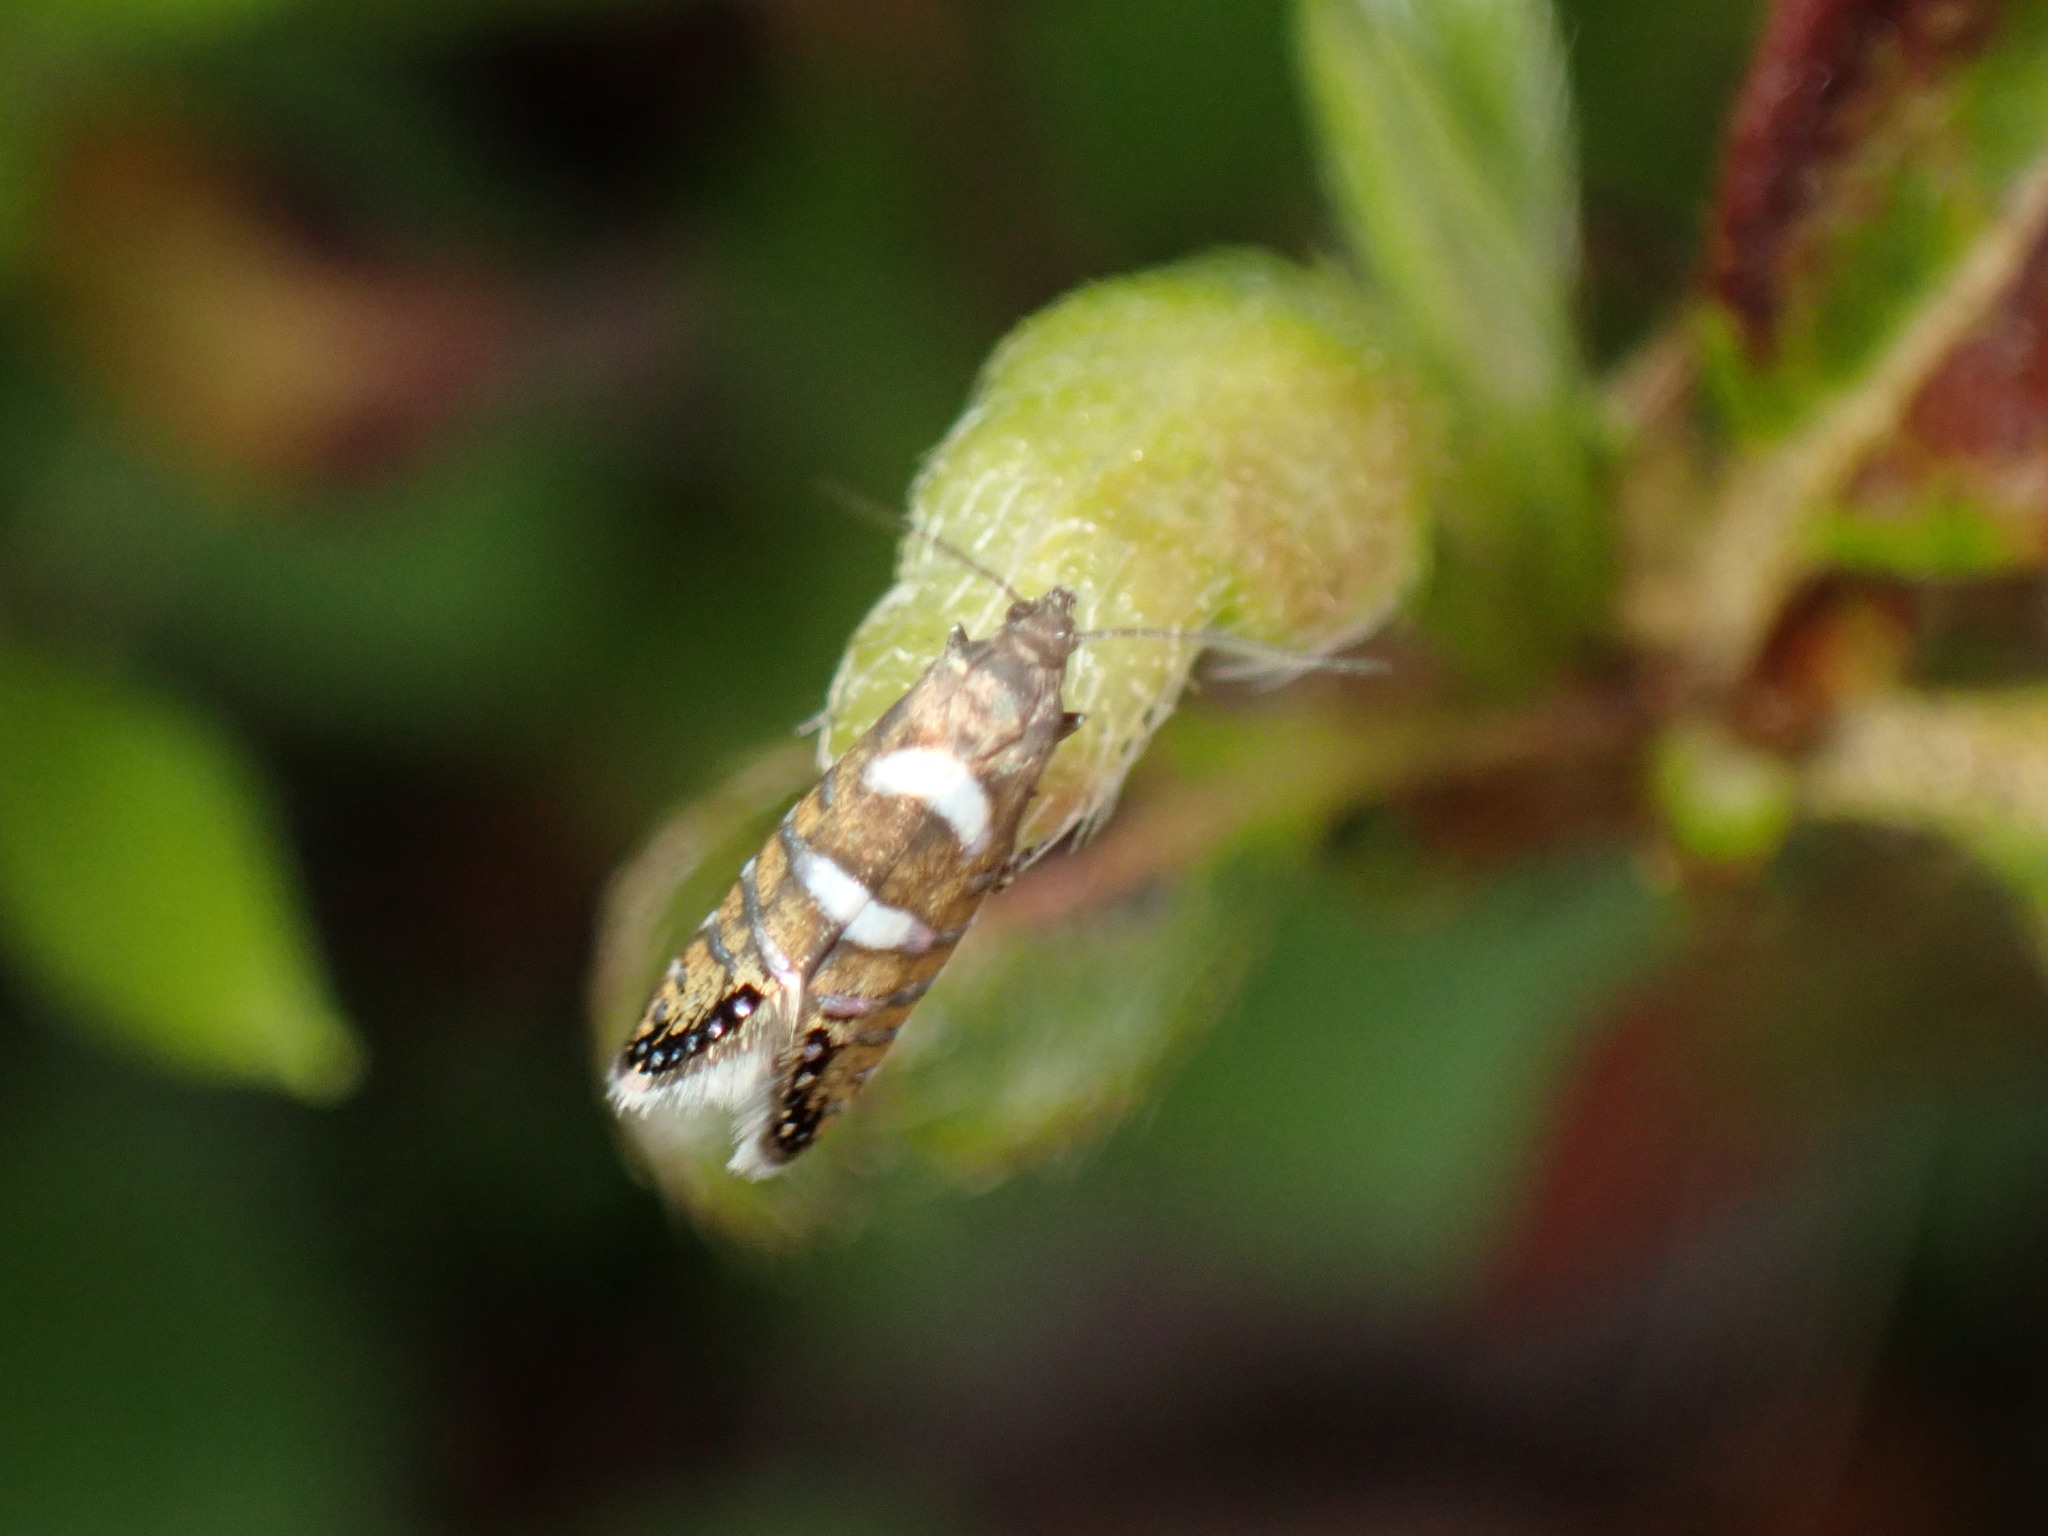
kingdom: Animalia
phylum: Arthropoda
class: Insecta
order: Lepidoptera
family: Glyphipterigidae
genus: Glyphipterix
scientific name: Glyphipterix nigromarginata
